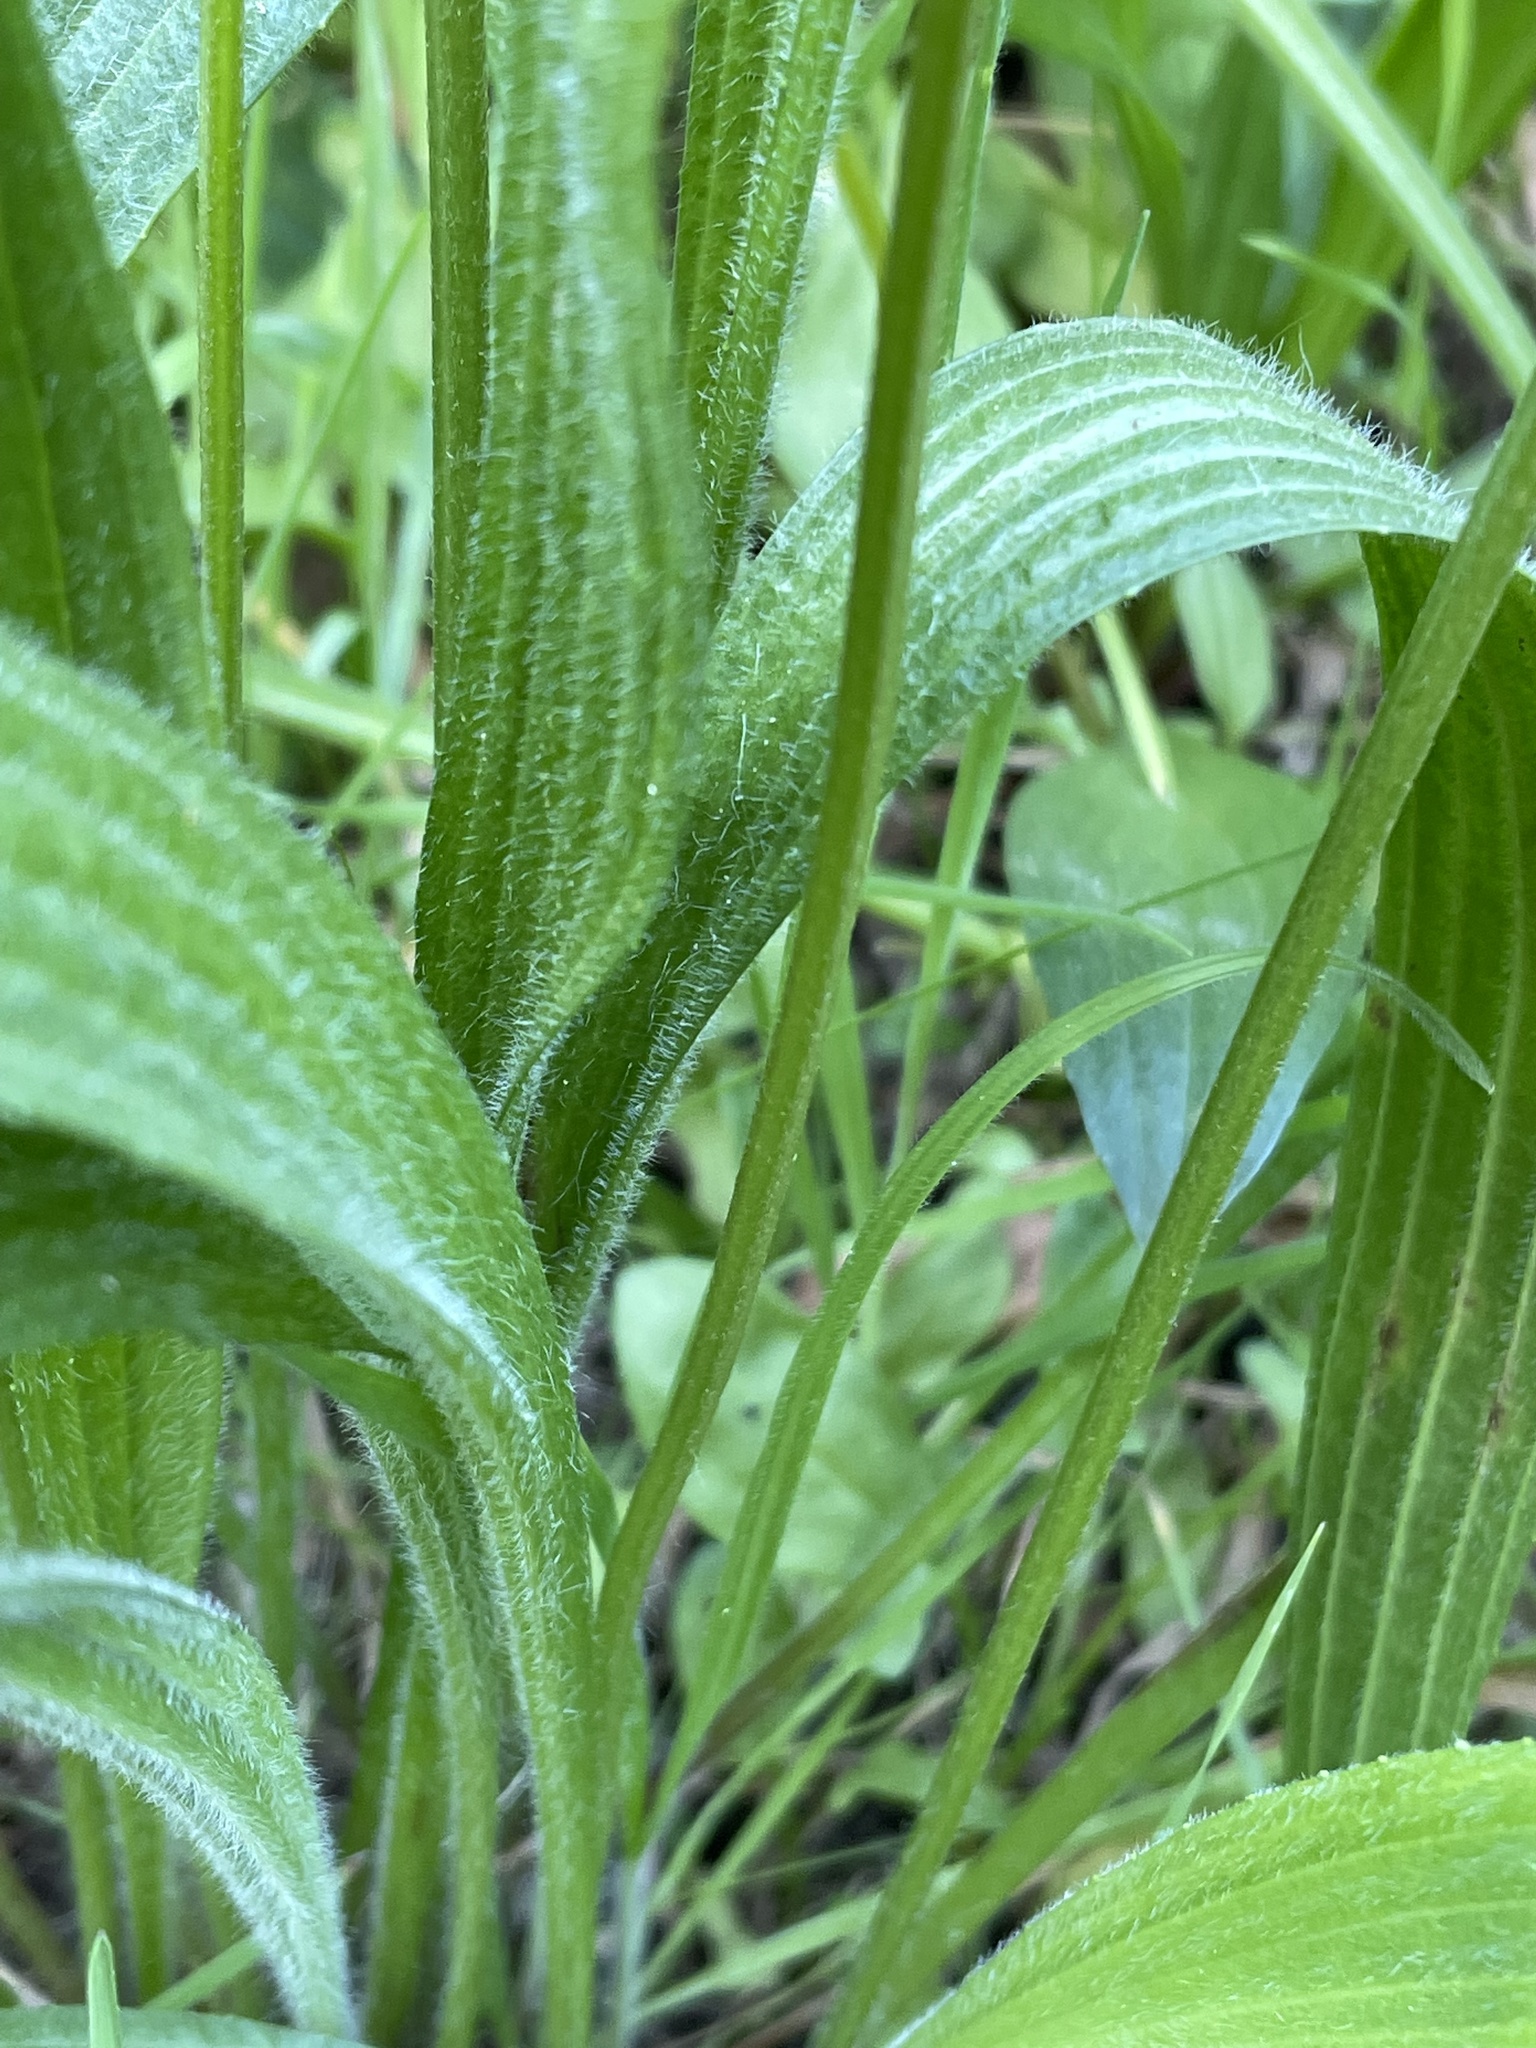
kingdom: Plantae
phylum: Tracheophyta
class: Magnoliopsida
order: Lamiales
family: Plantaginaceae
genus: Plantago
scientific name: Plantago lanceolata
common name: Ribwort plantain
